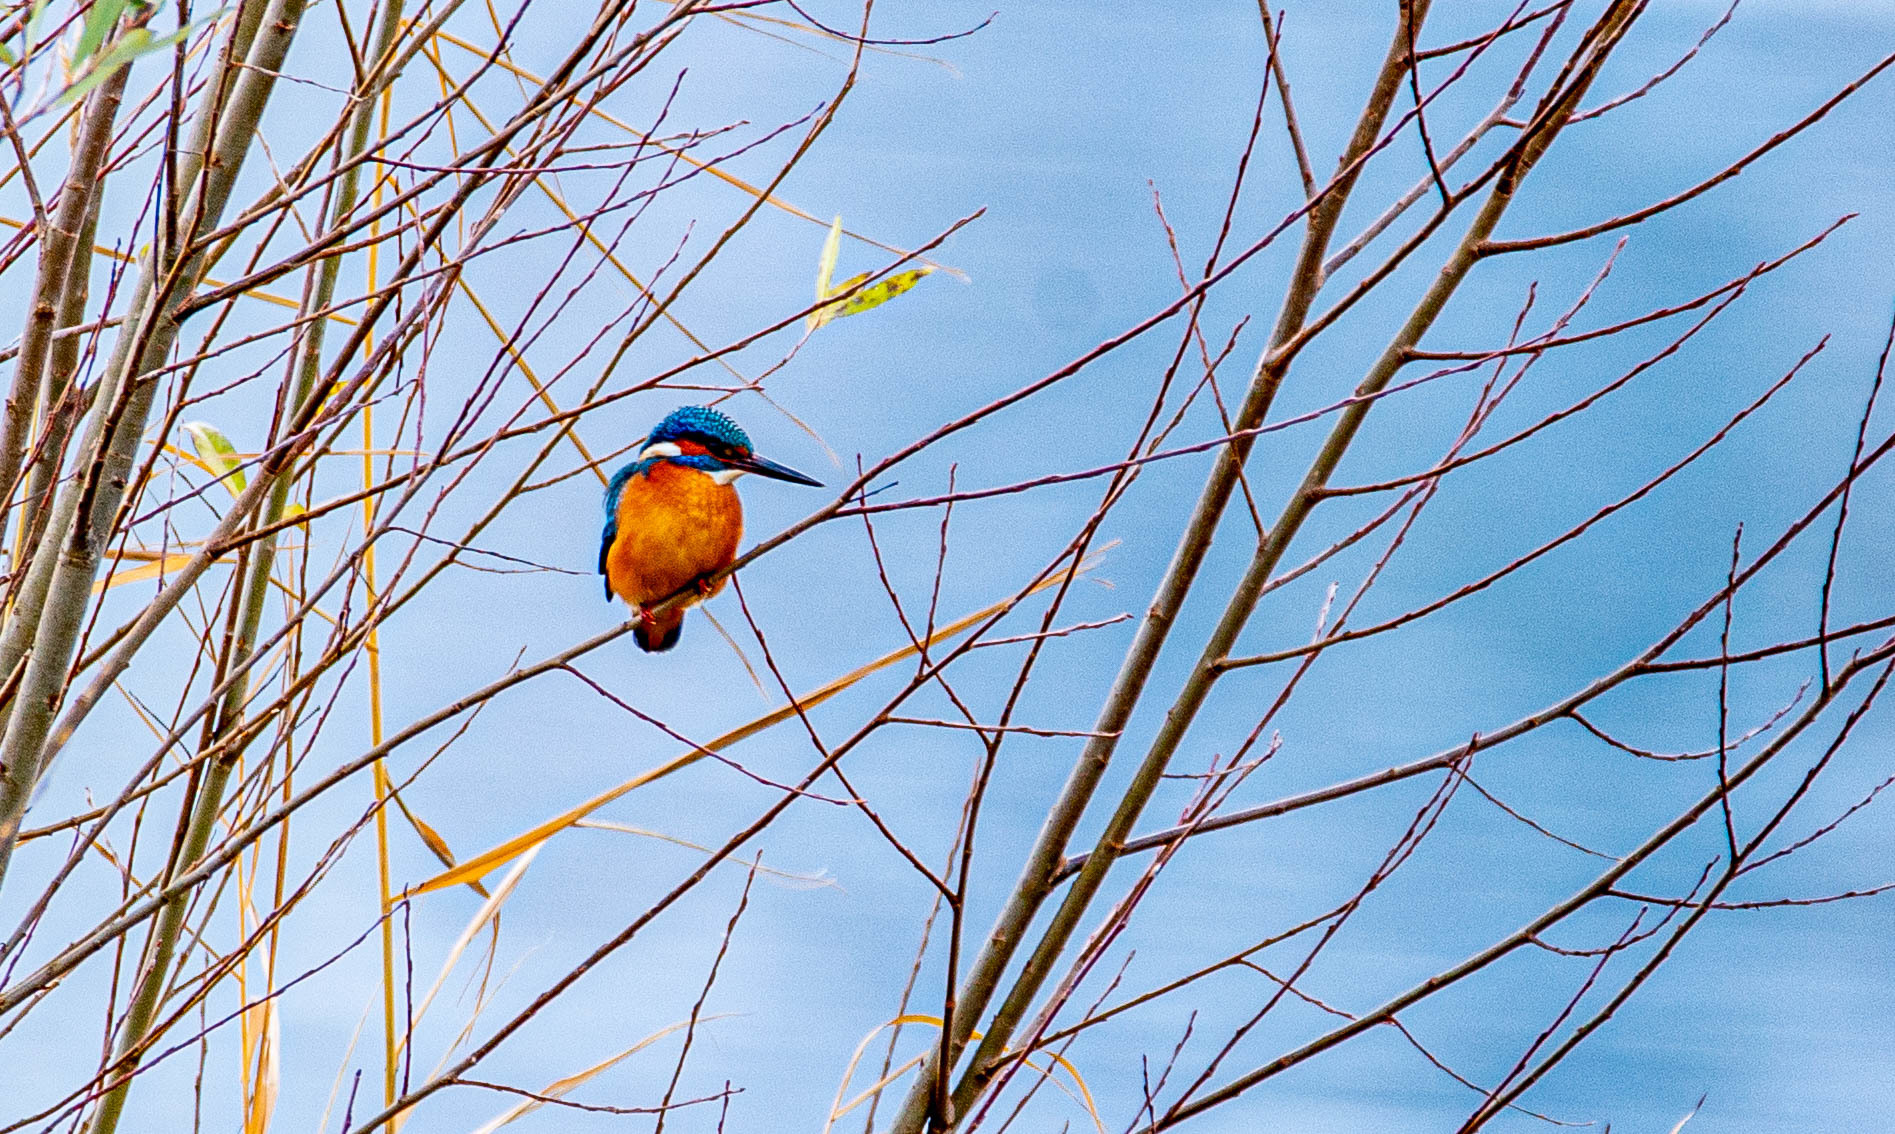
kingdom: Animalia
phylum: Chordata
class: Aves
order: Coraciiformes
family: Alcedinidae
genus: Alcedo
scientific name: Alcedo atthis
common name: Common kingfisher
